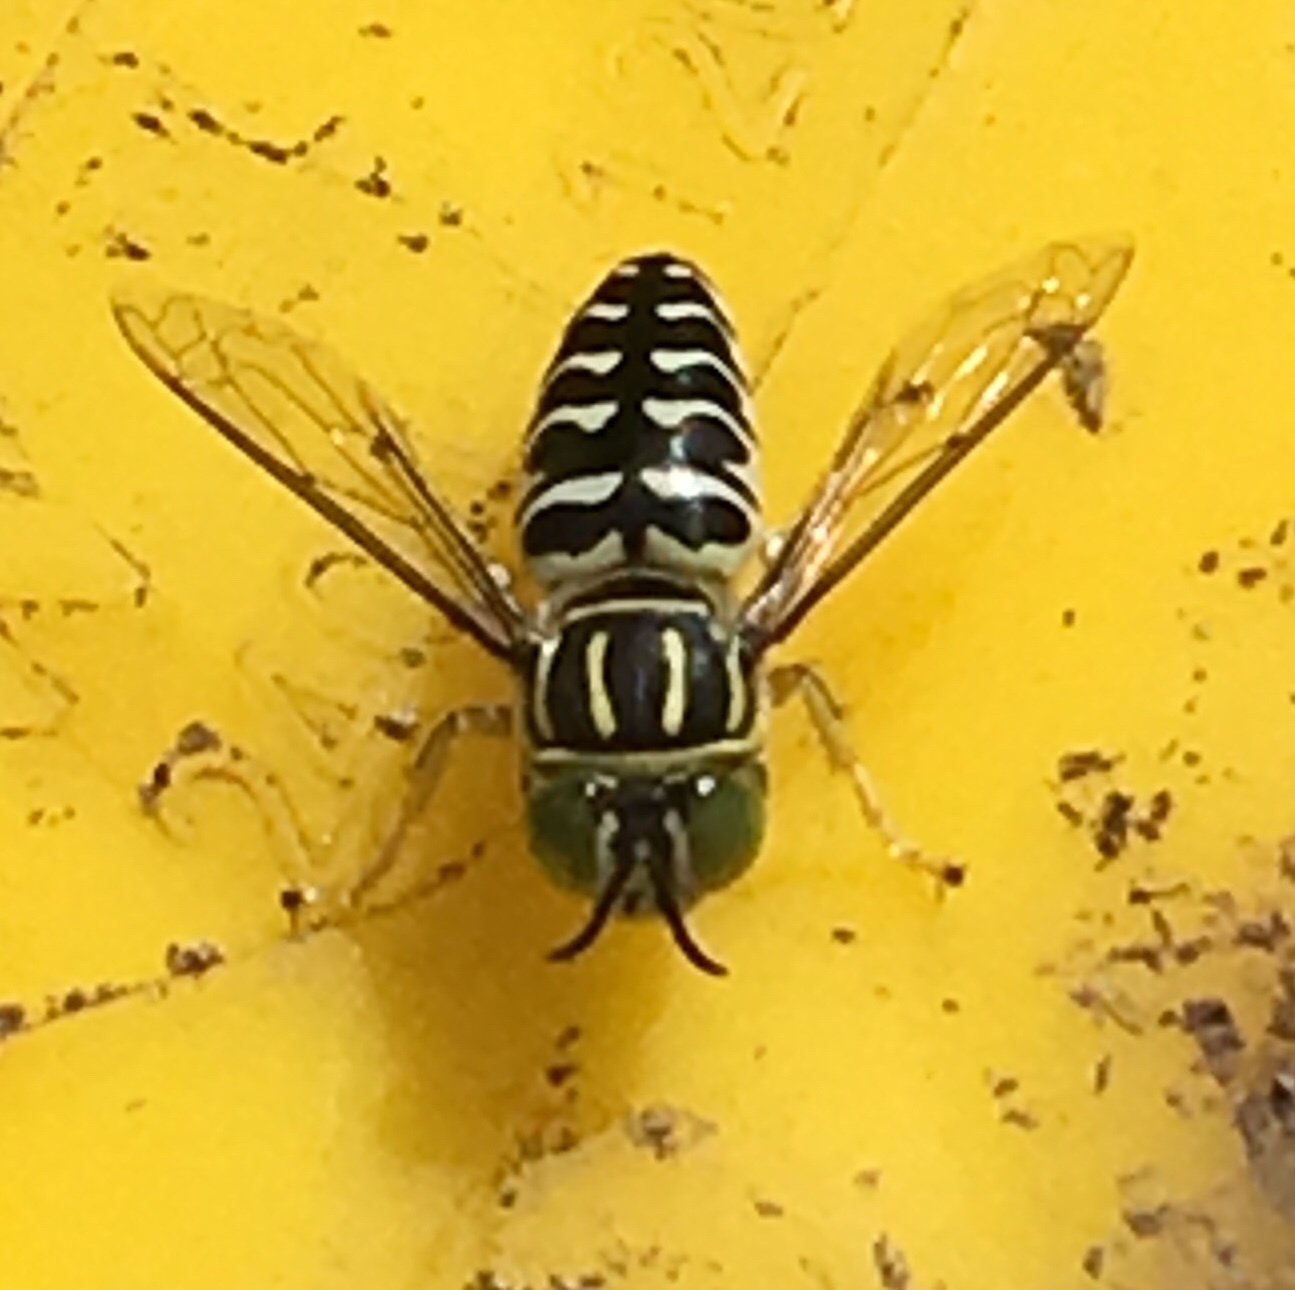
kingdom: Animalia
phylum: Arthropoda
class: Insecta
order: Hymenoptera
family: Crabronidae
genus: Stictia
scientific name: Stictia signata
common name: Sand wasp
